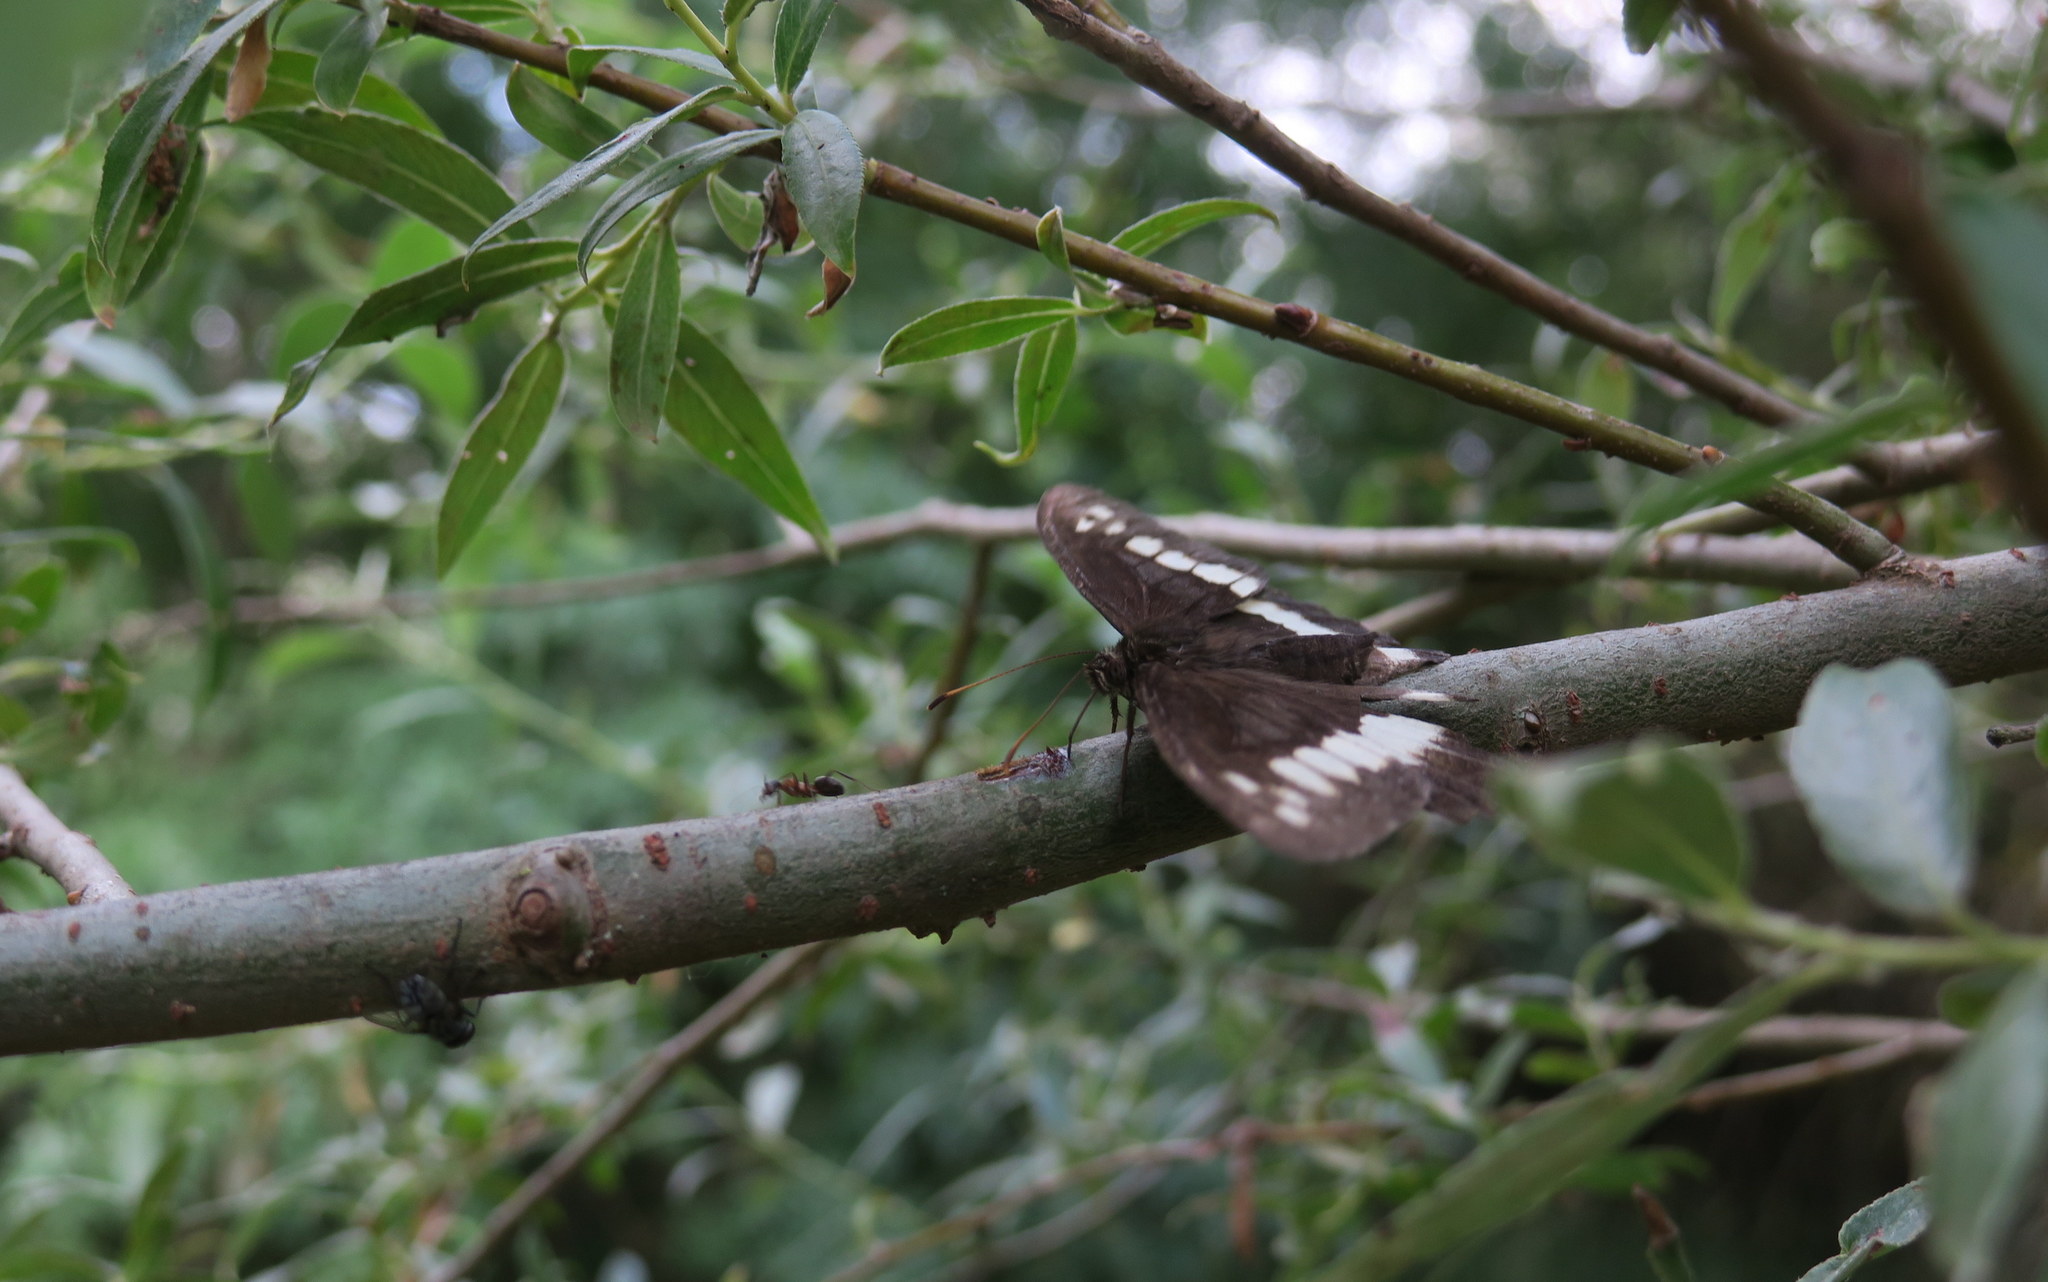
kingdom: Animalia
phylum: Arthropoda
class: Insecta
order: Lepidoptera
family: Lycaenidae
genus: Loweia
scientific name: Loweia tityrus
